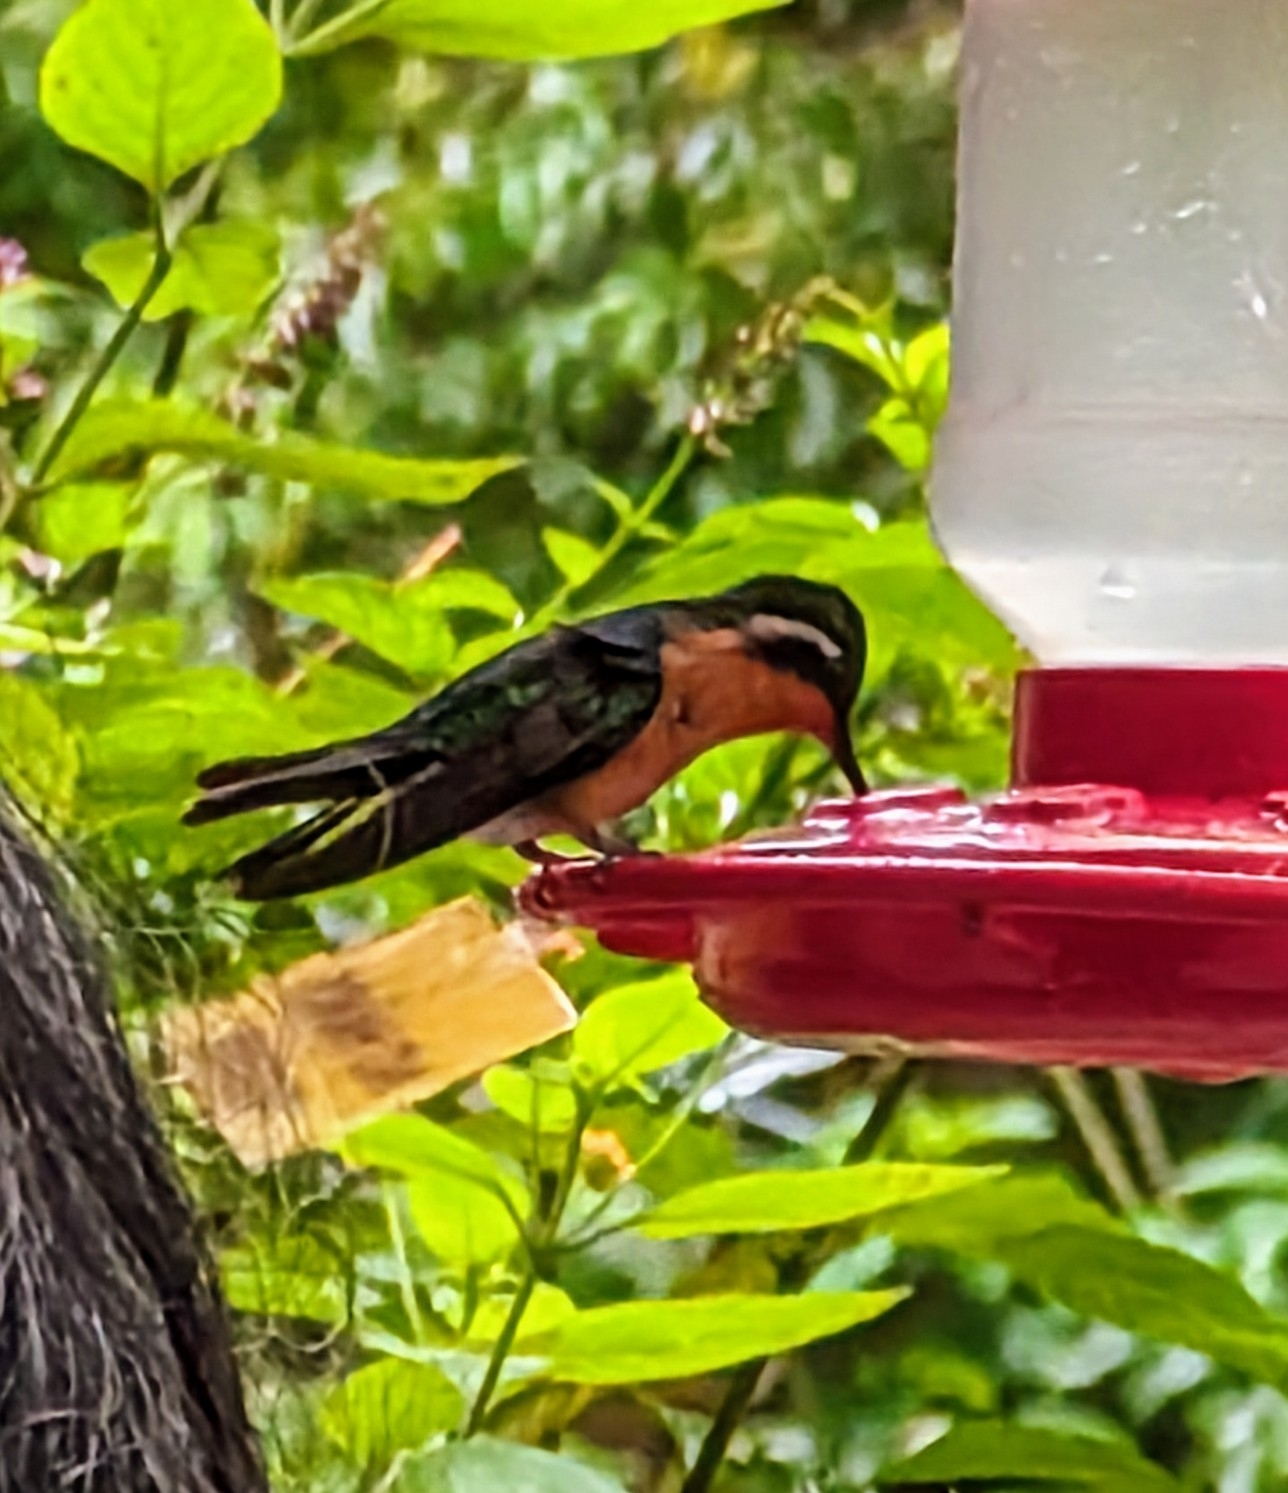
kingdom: Animalia
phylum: Chordata
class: Aves
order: Apodiformes
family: Trochilidae
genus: Lampornis
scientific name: Lampornis calolaemus
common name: Purple-throated mountain-gem
